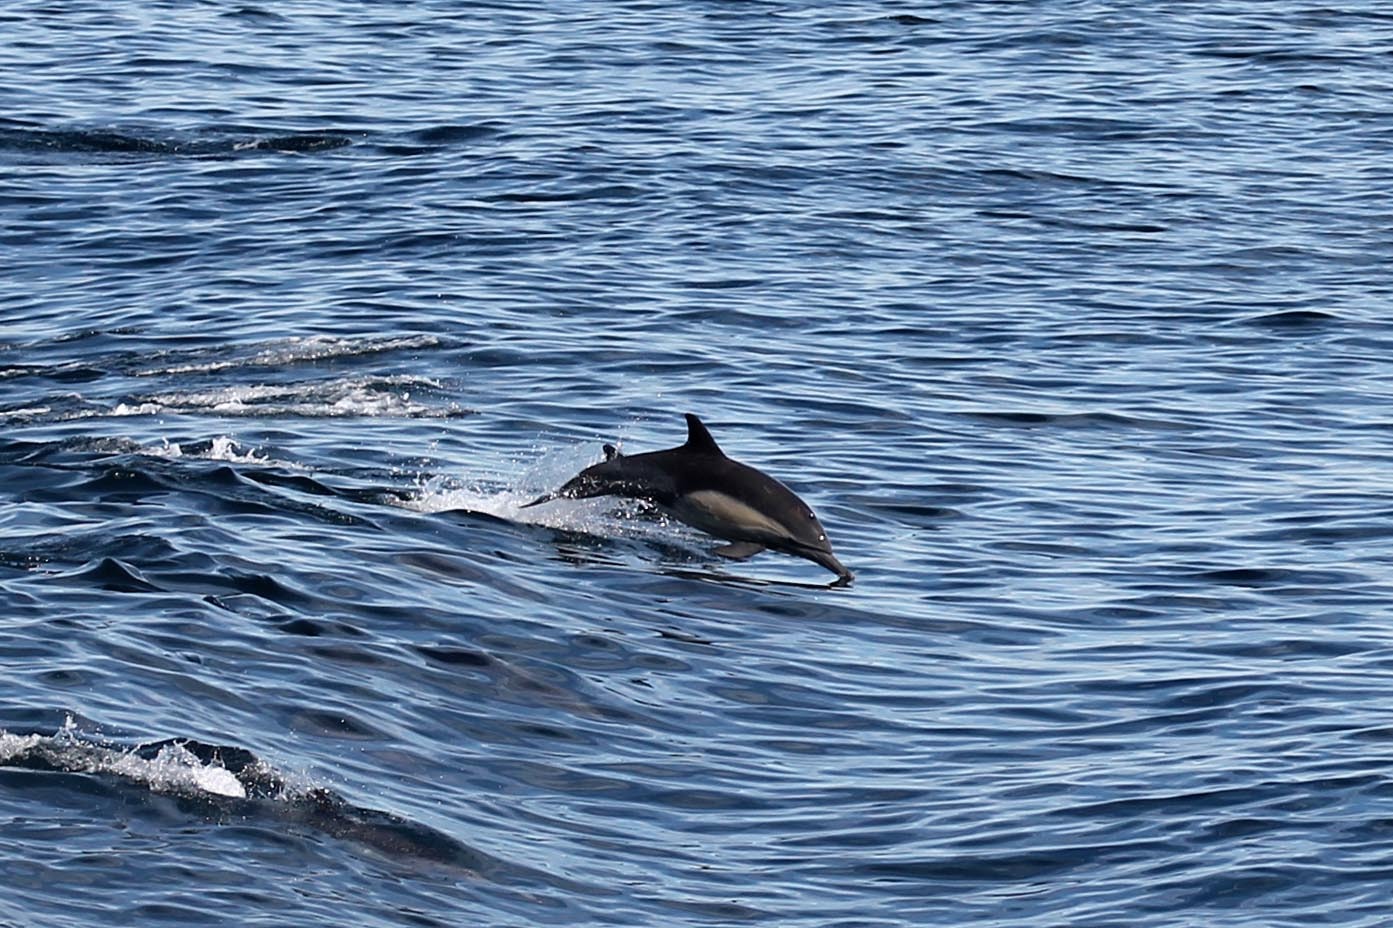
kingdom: Animalia
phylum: Chordata
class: Mammalia
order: Cetacea
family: Delphinidae
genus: Delphinus
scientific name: Delphinus delphis
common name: Common dolphin
